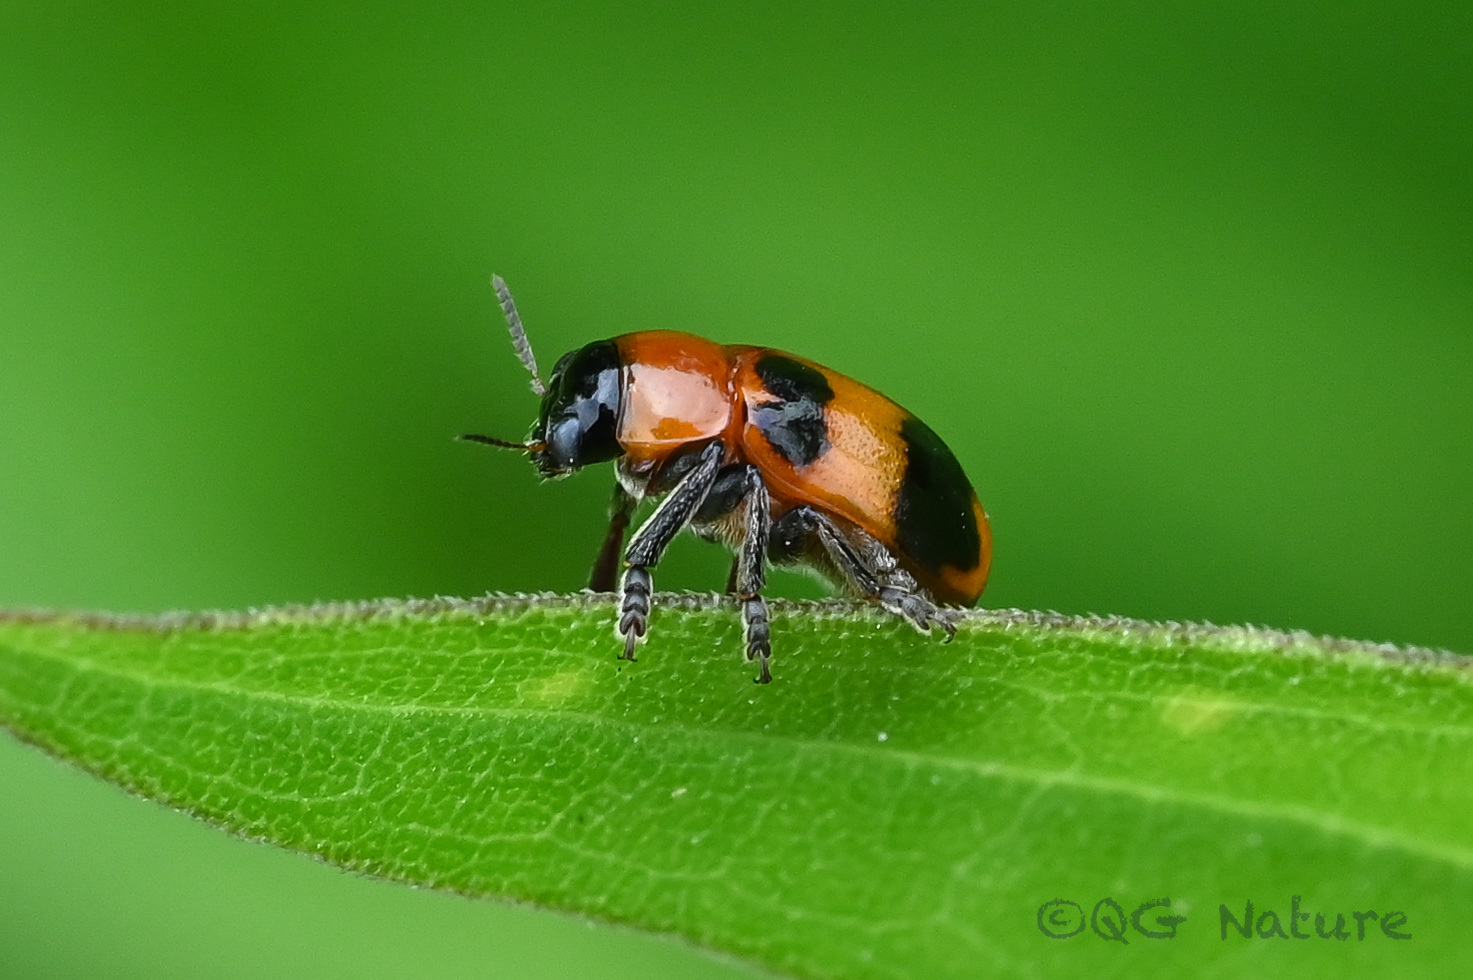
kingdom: Animalia
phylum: Arthropoda
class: Insecta
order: Coleoptera
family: Chrysomelidae
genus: Physosmaragdina
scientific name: Physosmaragdina nigrifrons
